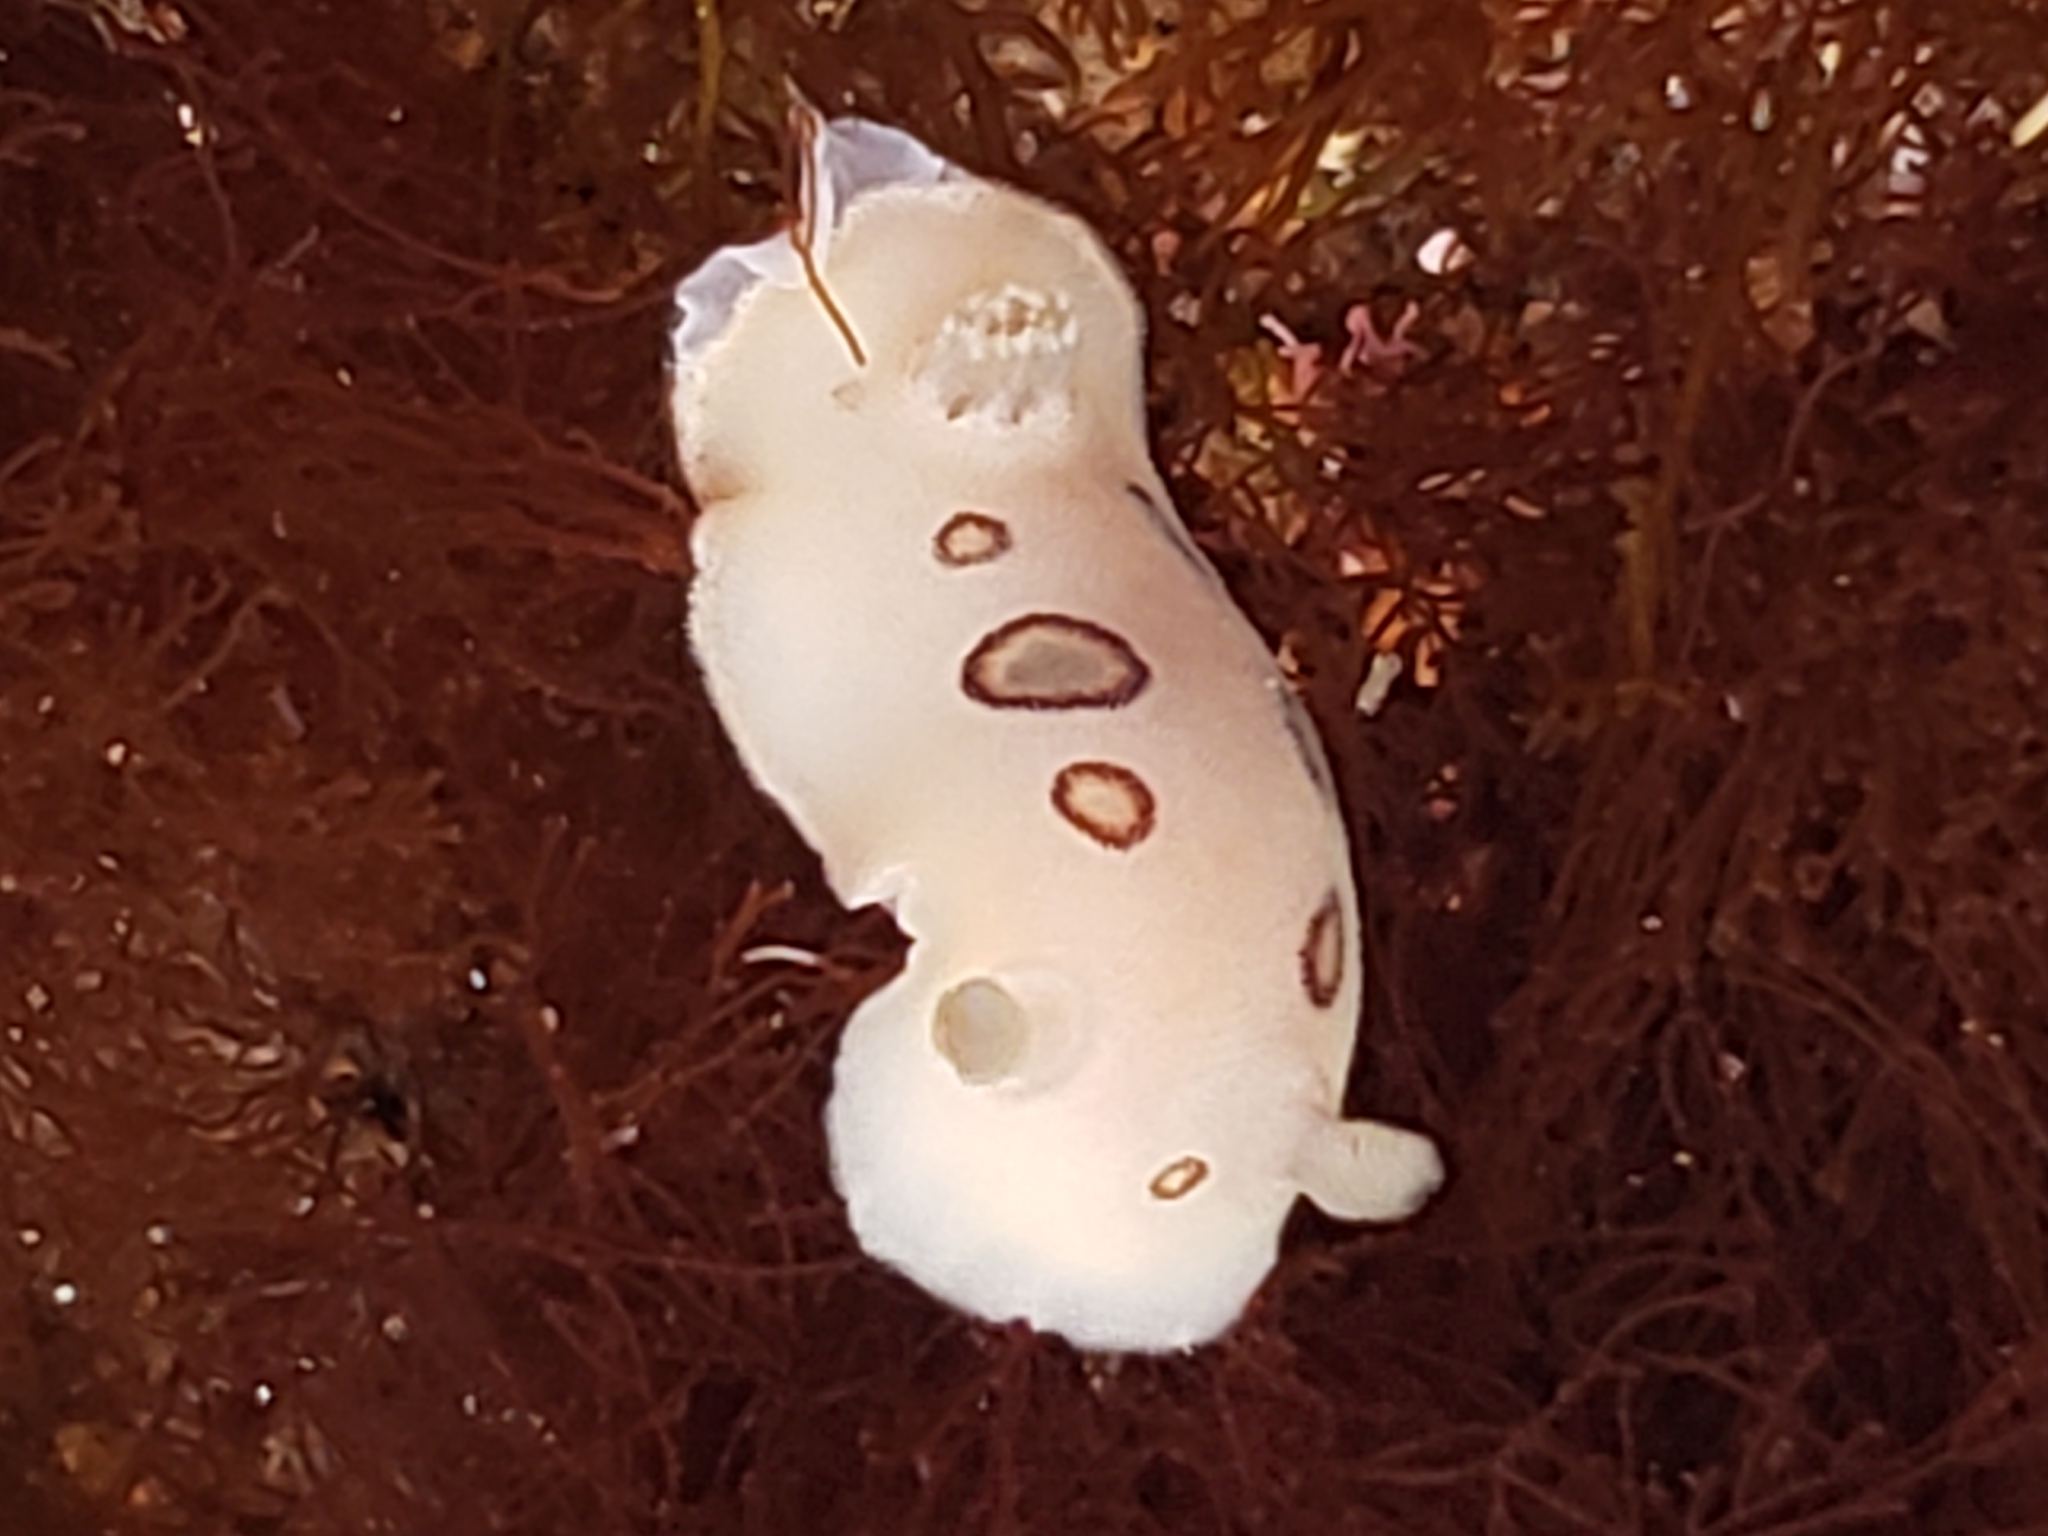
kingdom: Animalia
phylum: Mollusca
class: Gastropoda
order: Nudibranchia
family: Discodorididae
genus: Diaulula
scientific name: Diaulula sandiegensis
